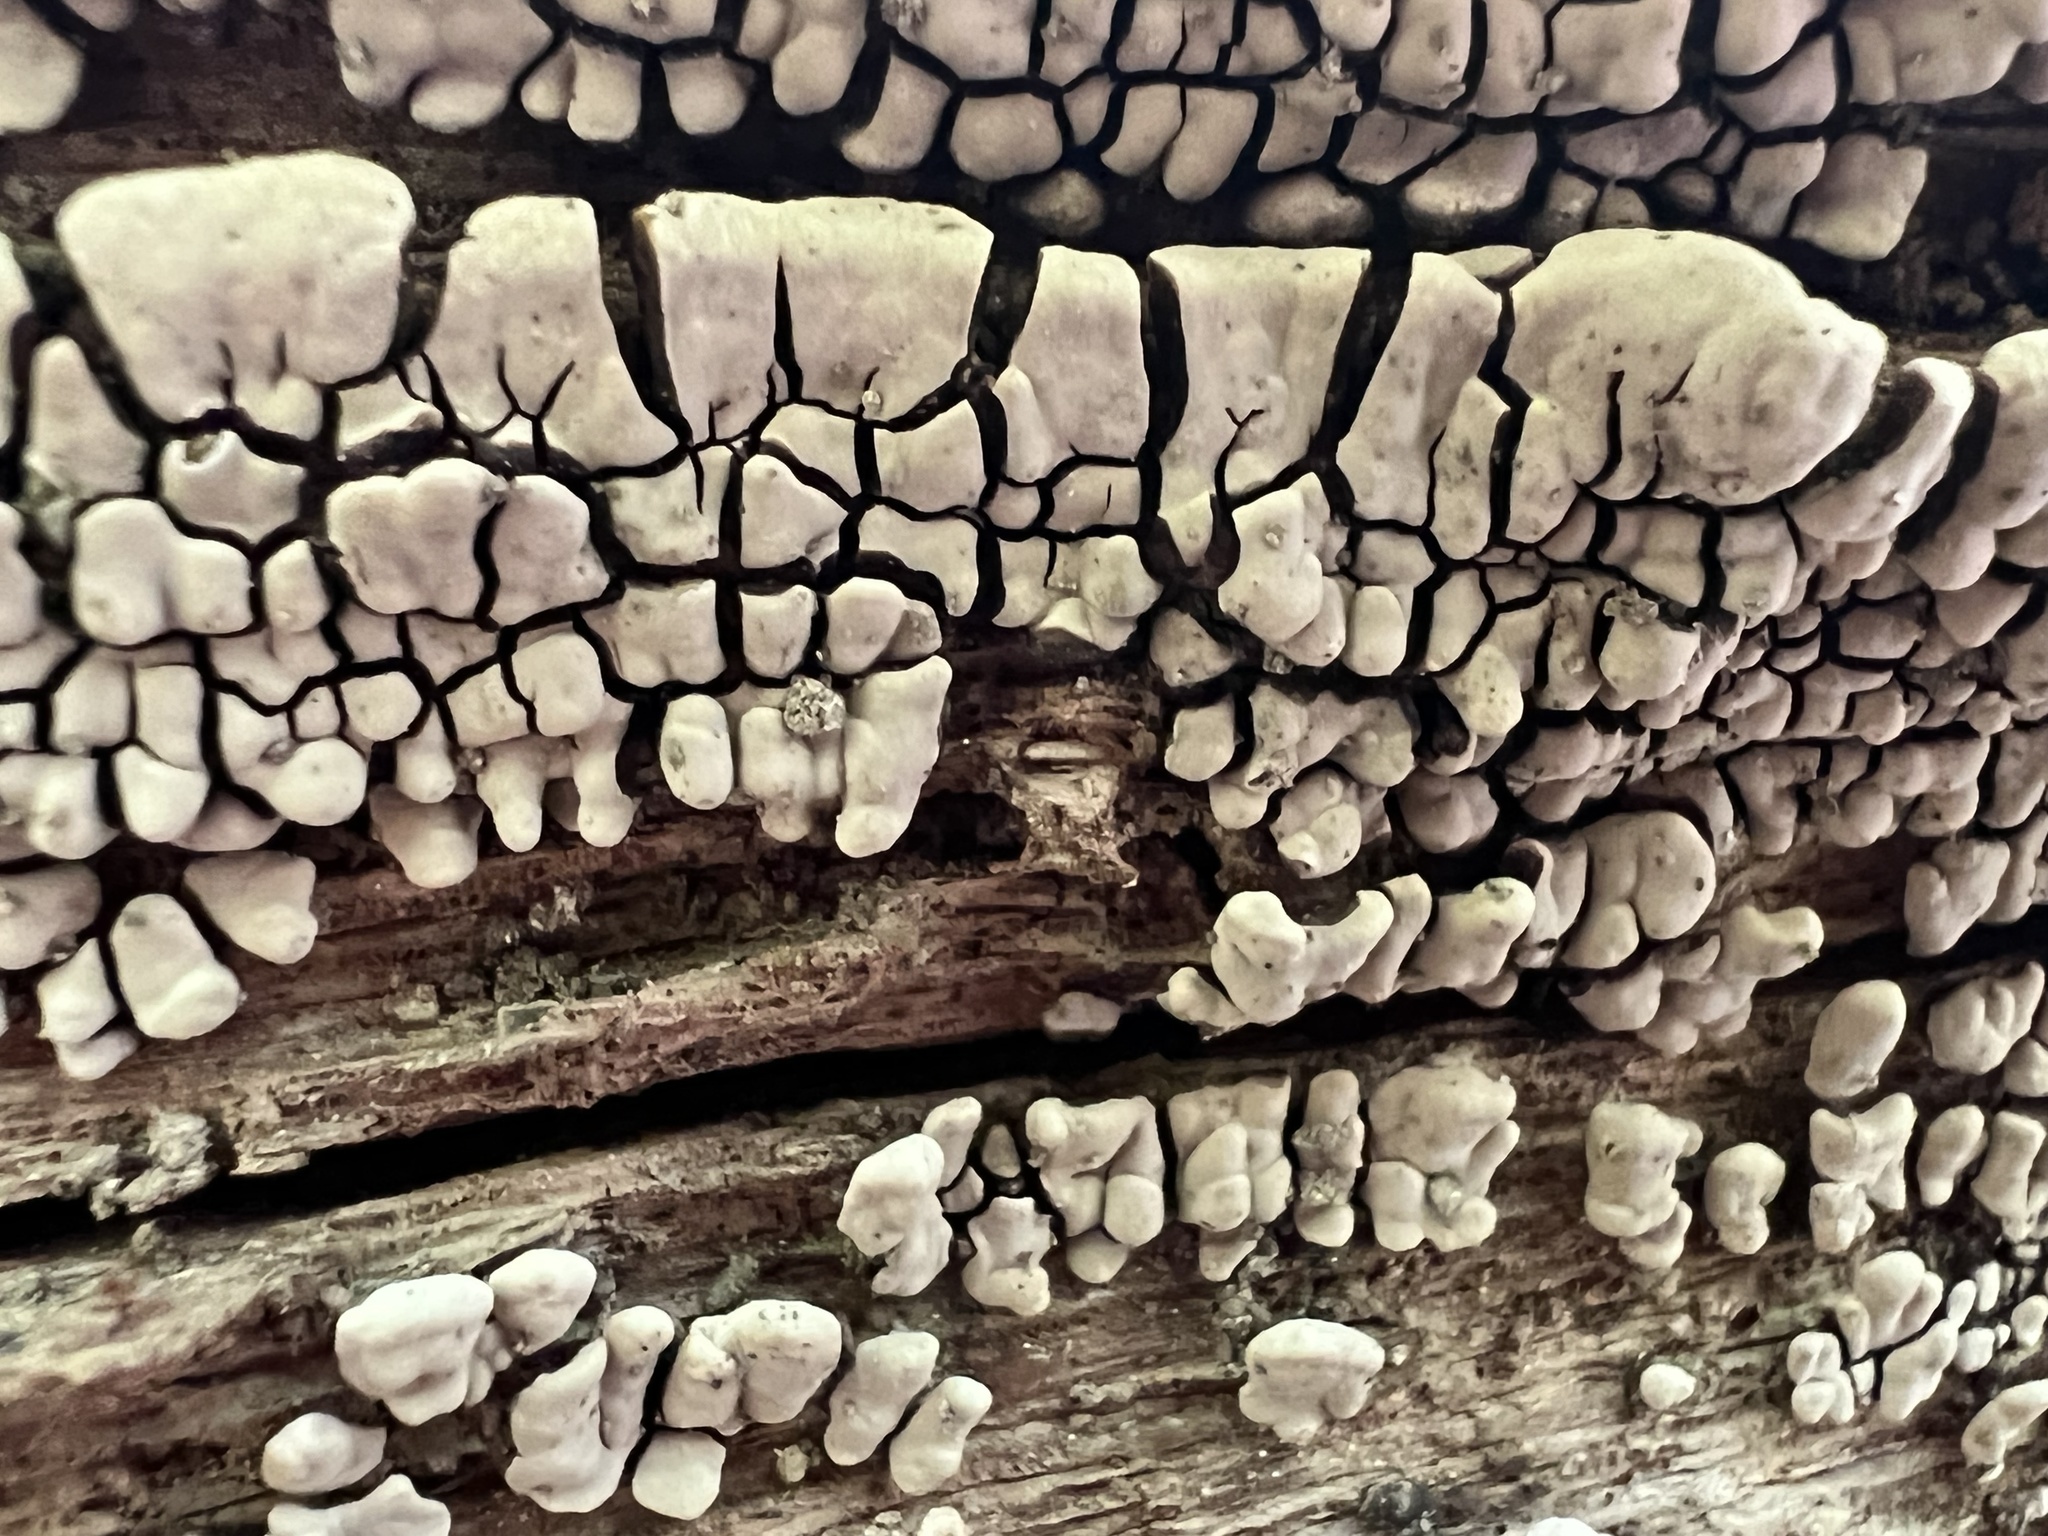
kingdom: Fungi
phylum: Basidiomycota
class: Agaricomycetes
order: Russulales
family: Stereaceae
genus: Xylobolus
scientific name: Xylobolus frustulatus
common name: Ceramic parchment
